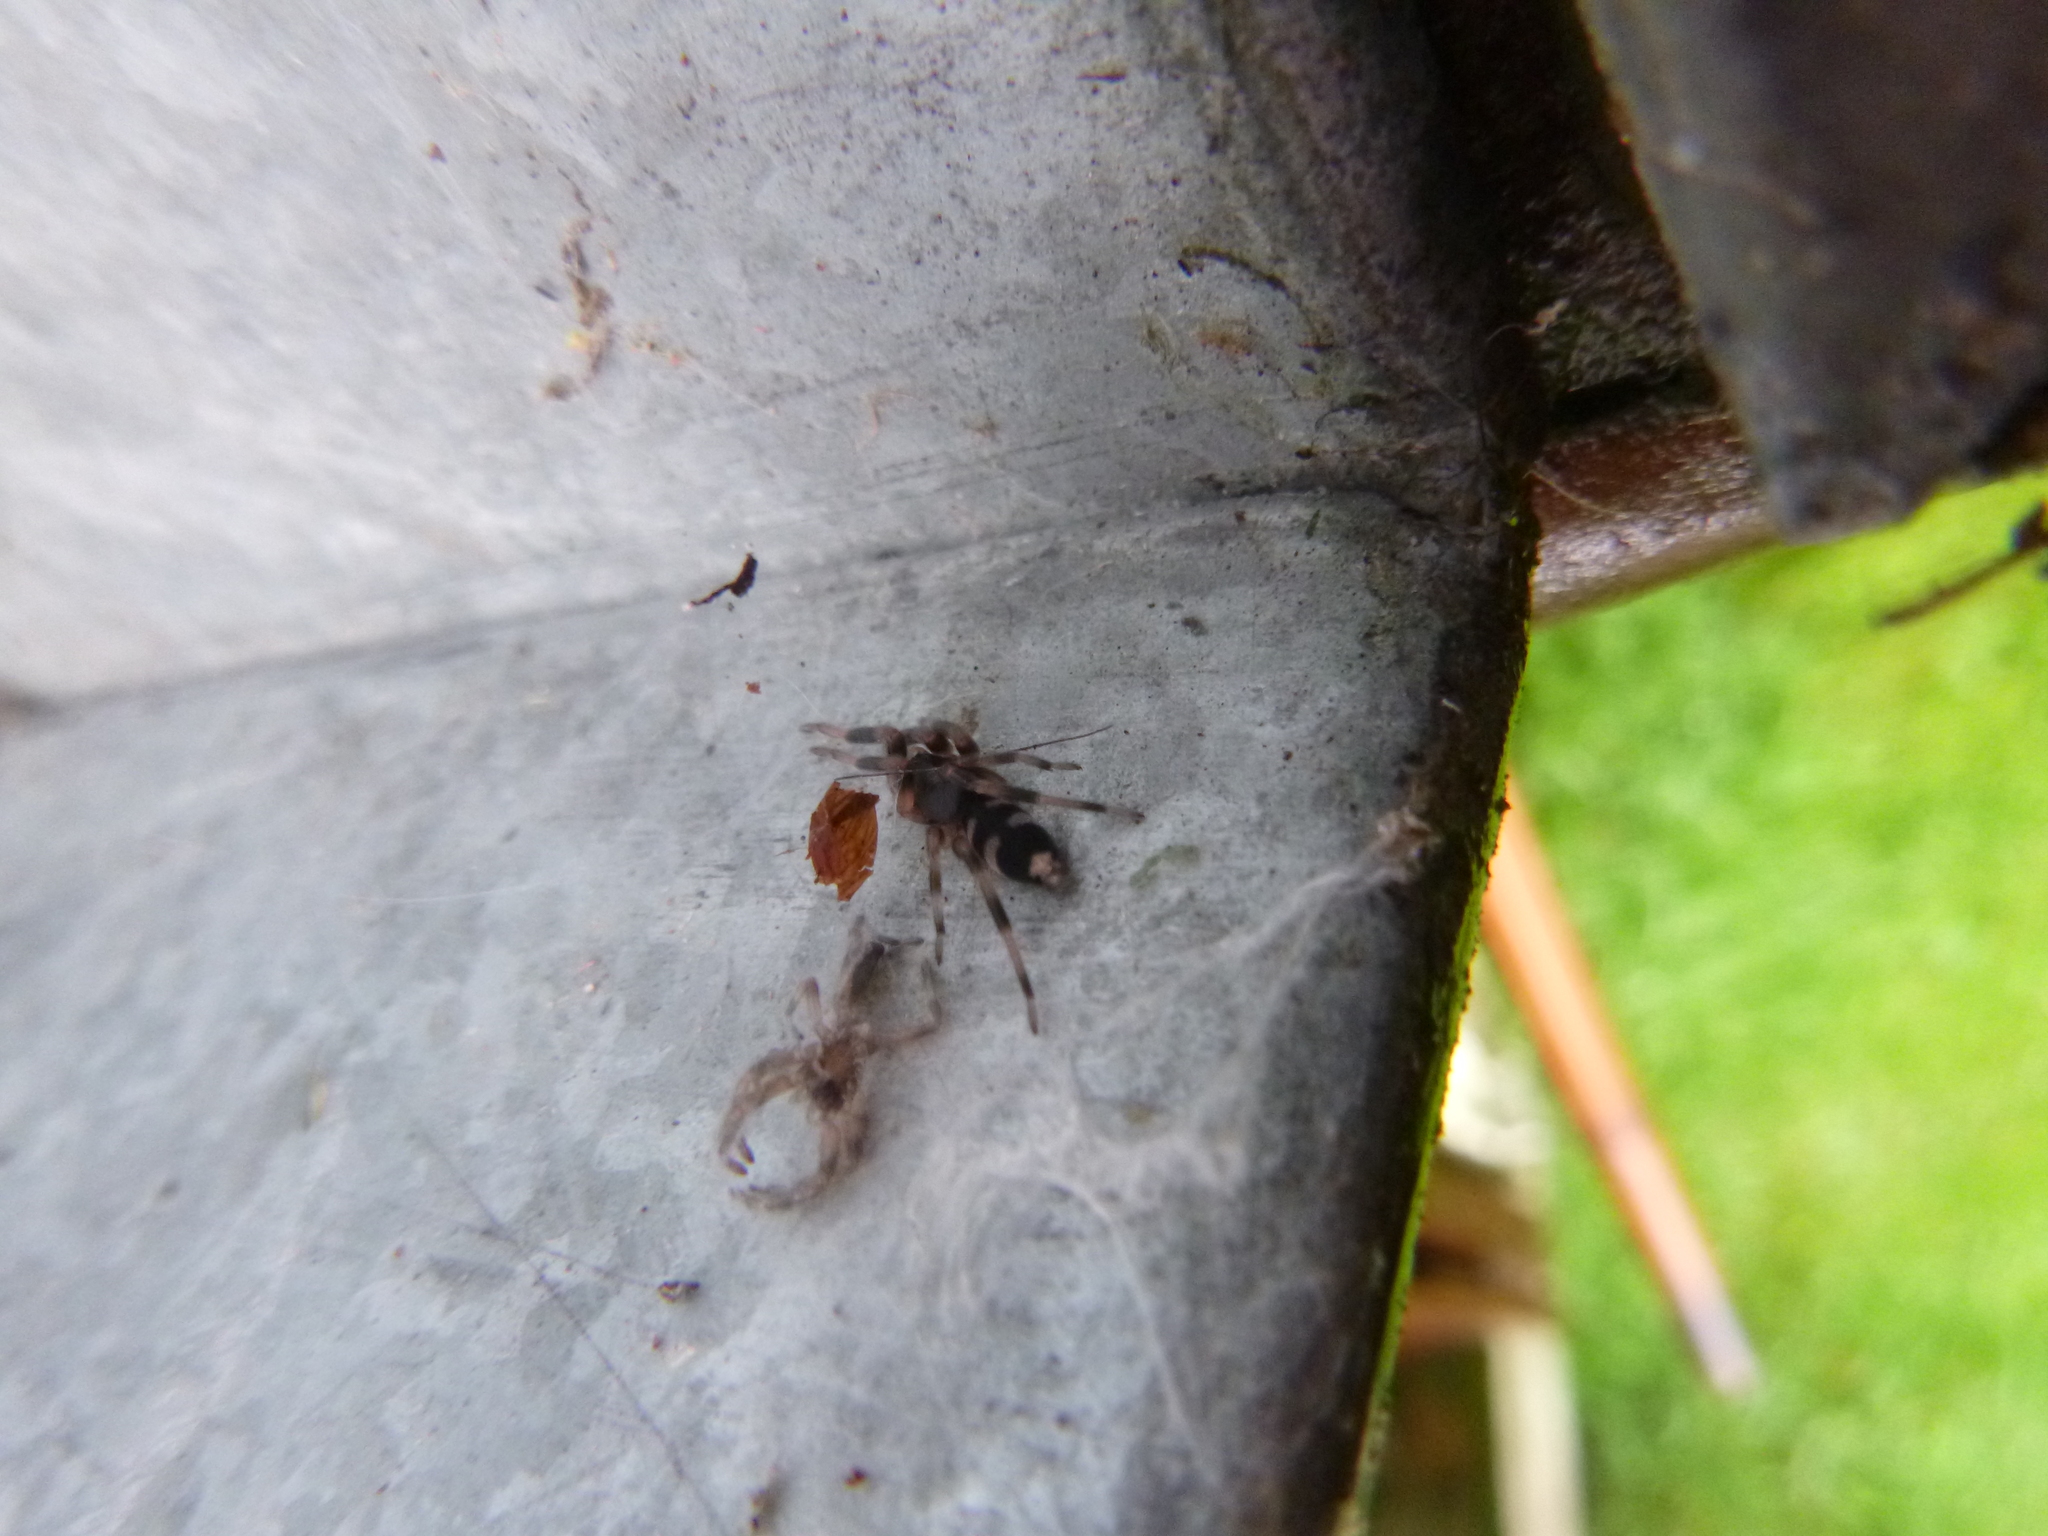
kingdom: Animalia
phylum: Arthropoda
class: Arachnida
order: Araneae
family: Lamponidae
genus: Lampona
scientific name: Lampona murina
